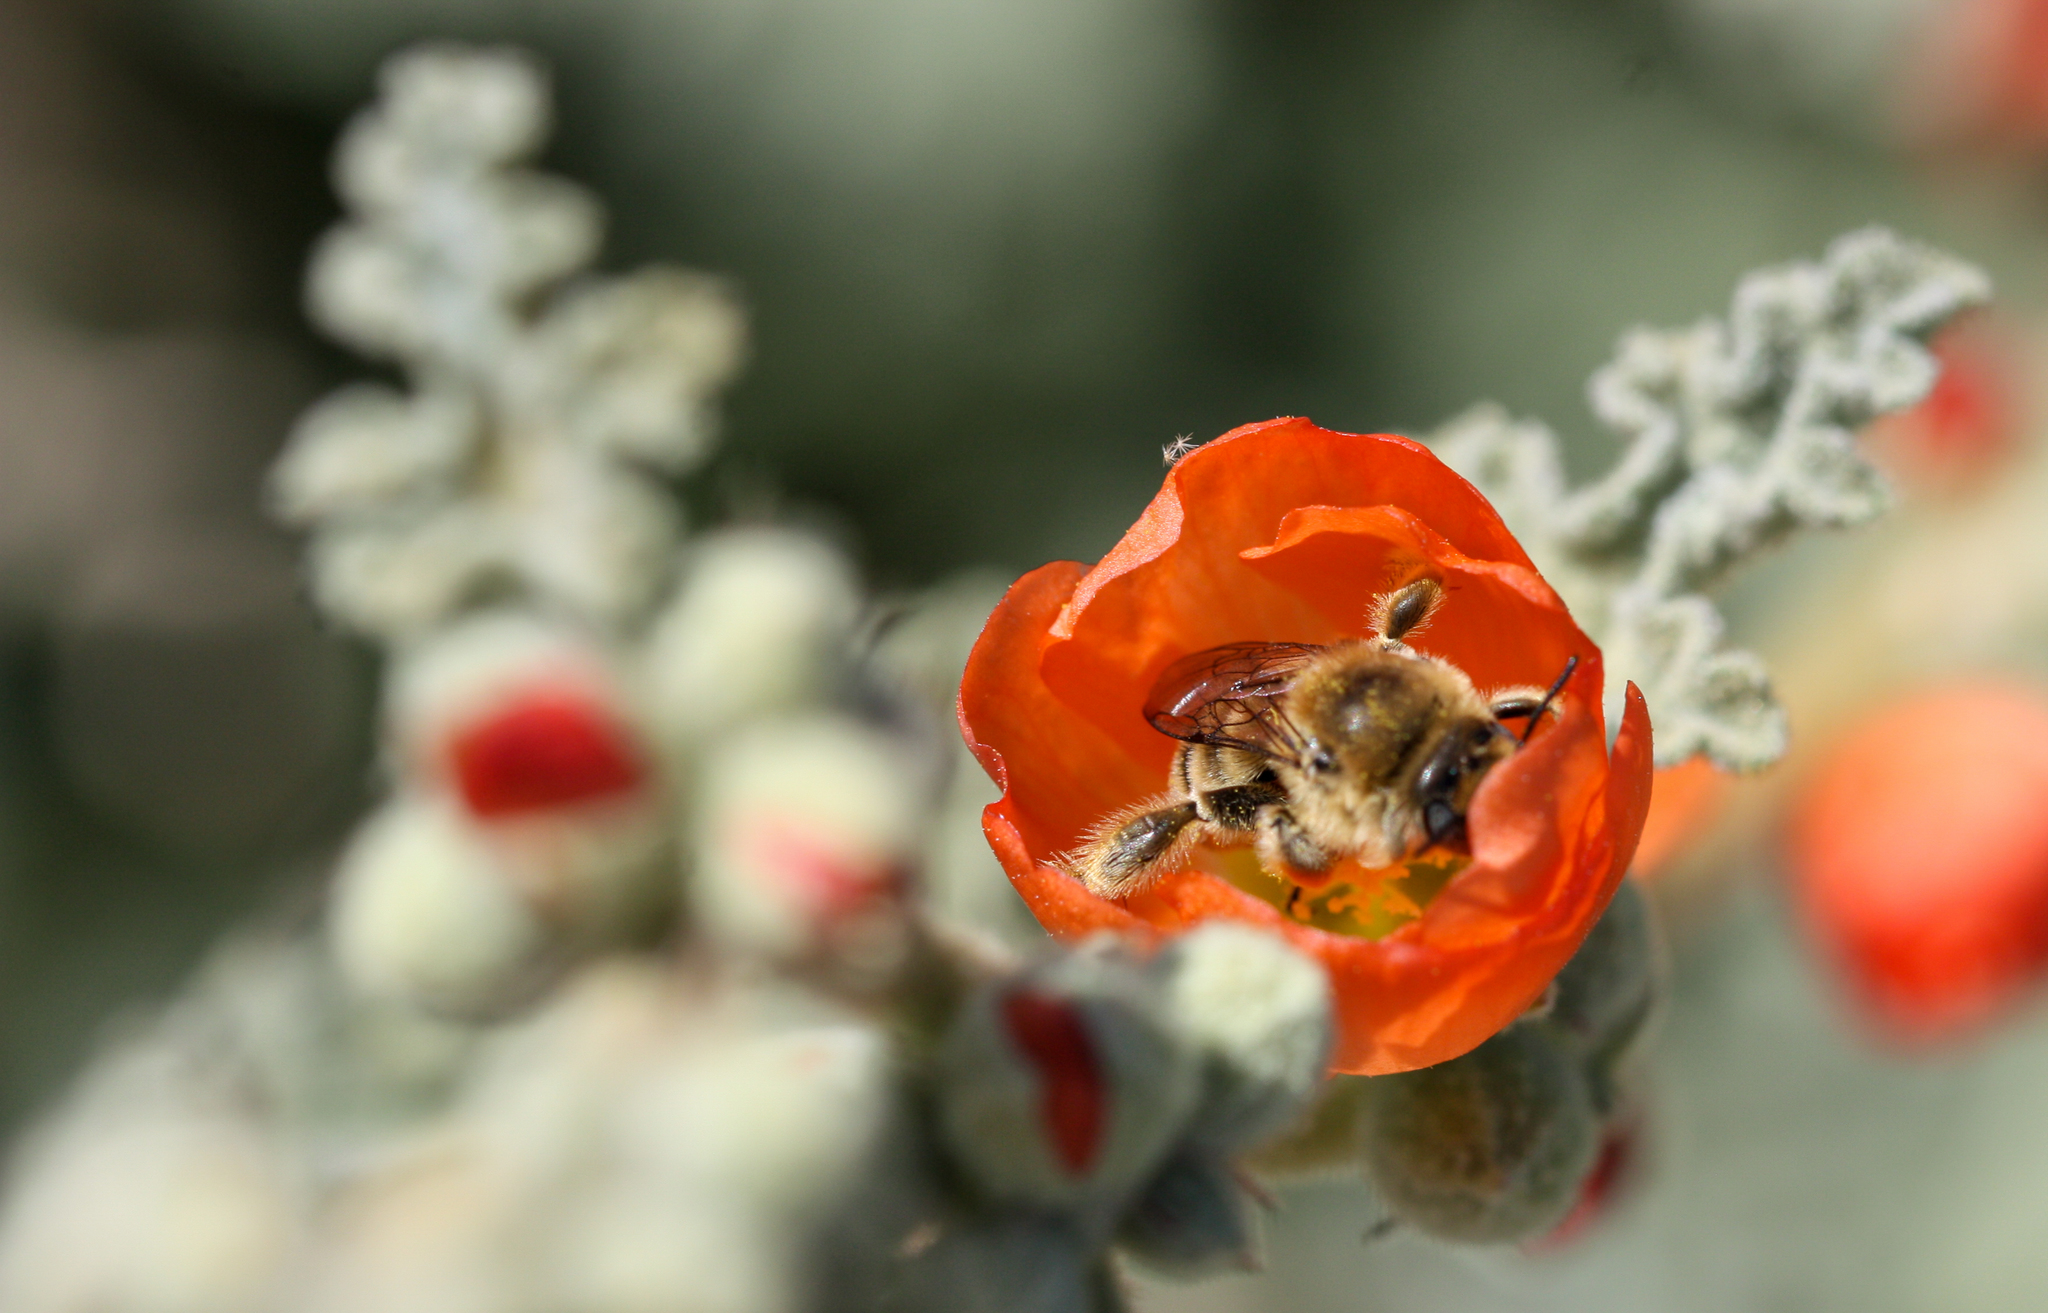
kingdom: Animalia
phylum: Arthropoda
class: Insecta
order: Hymenoptera
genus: Coquillettapis
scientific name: Coquillettapis
